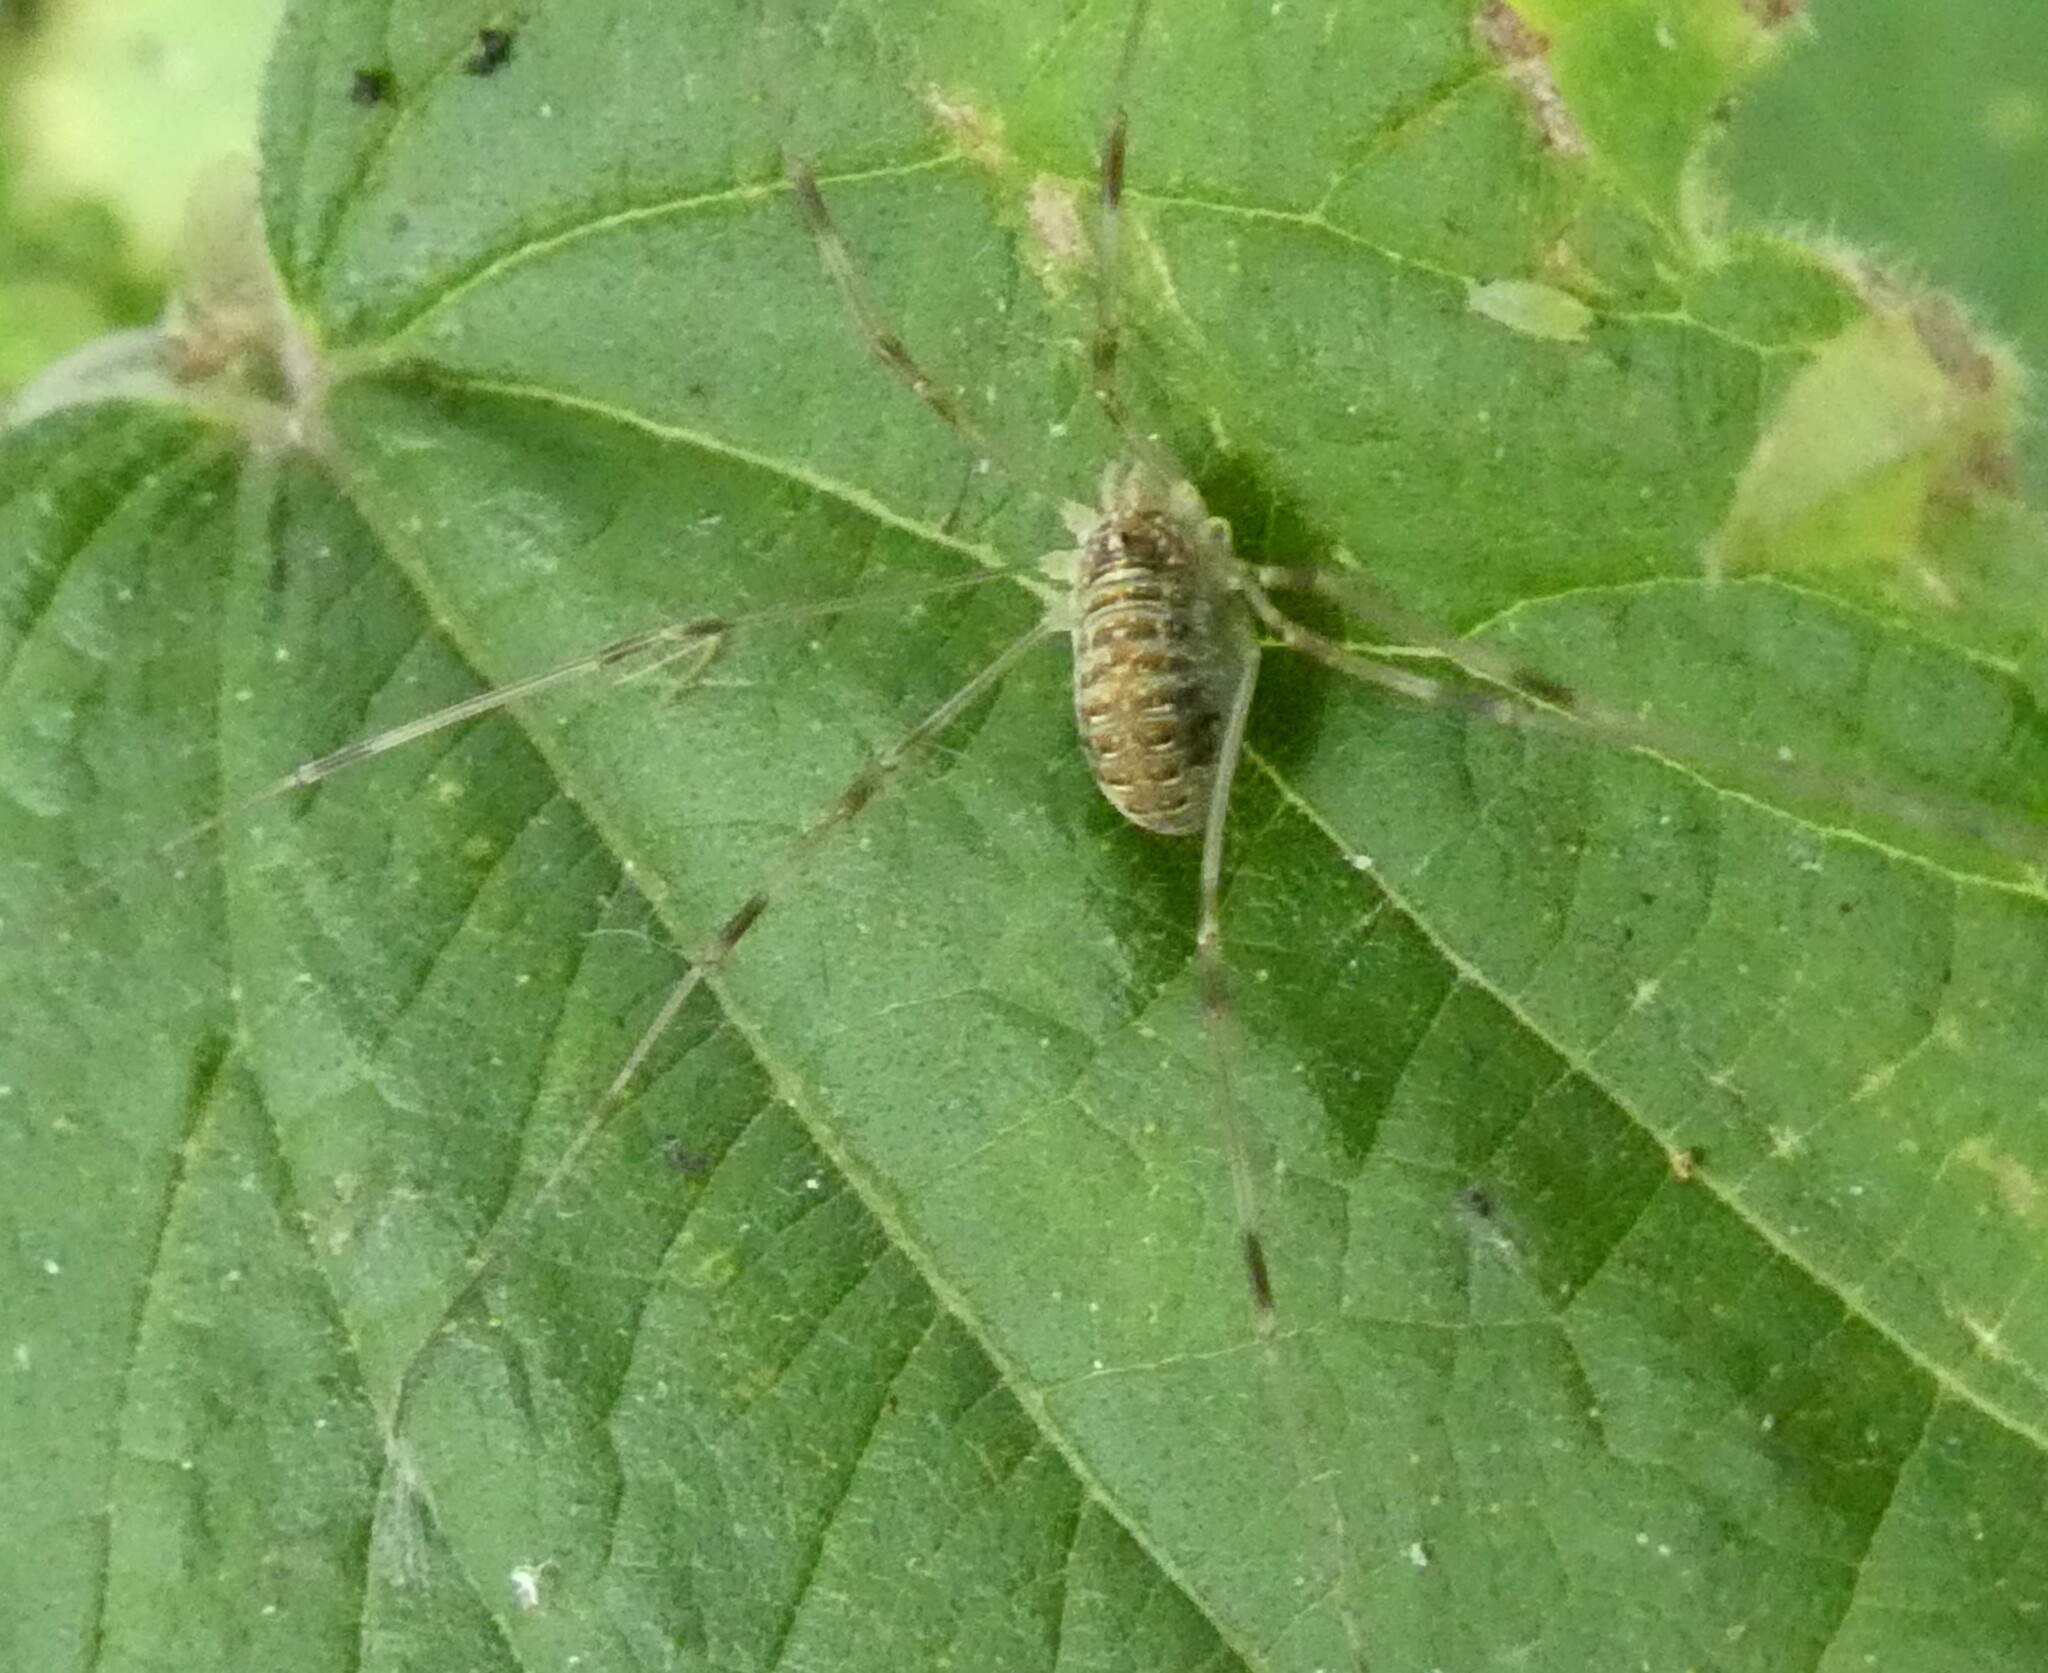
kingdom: Animalia
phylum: Arthropoda
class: Arachnida
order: Opiliones
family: Phalangiidae
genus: Opilio
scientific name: Opilio canestrinii
